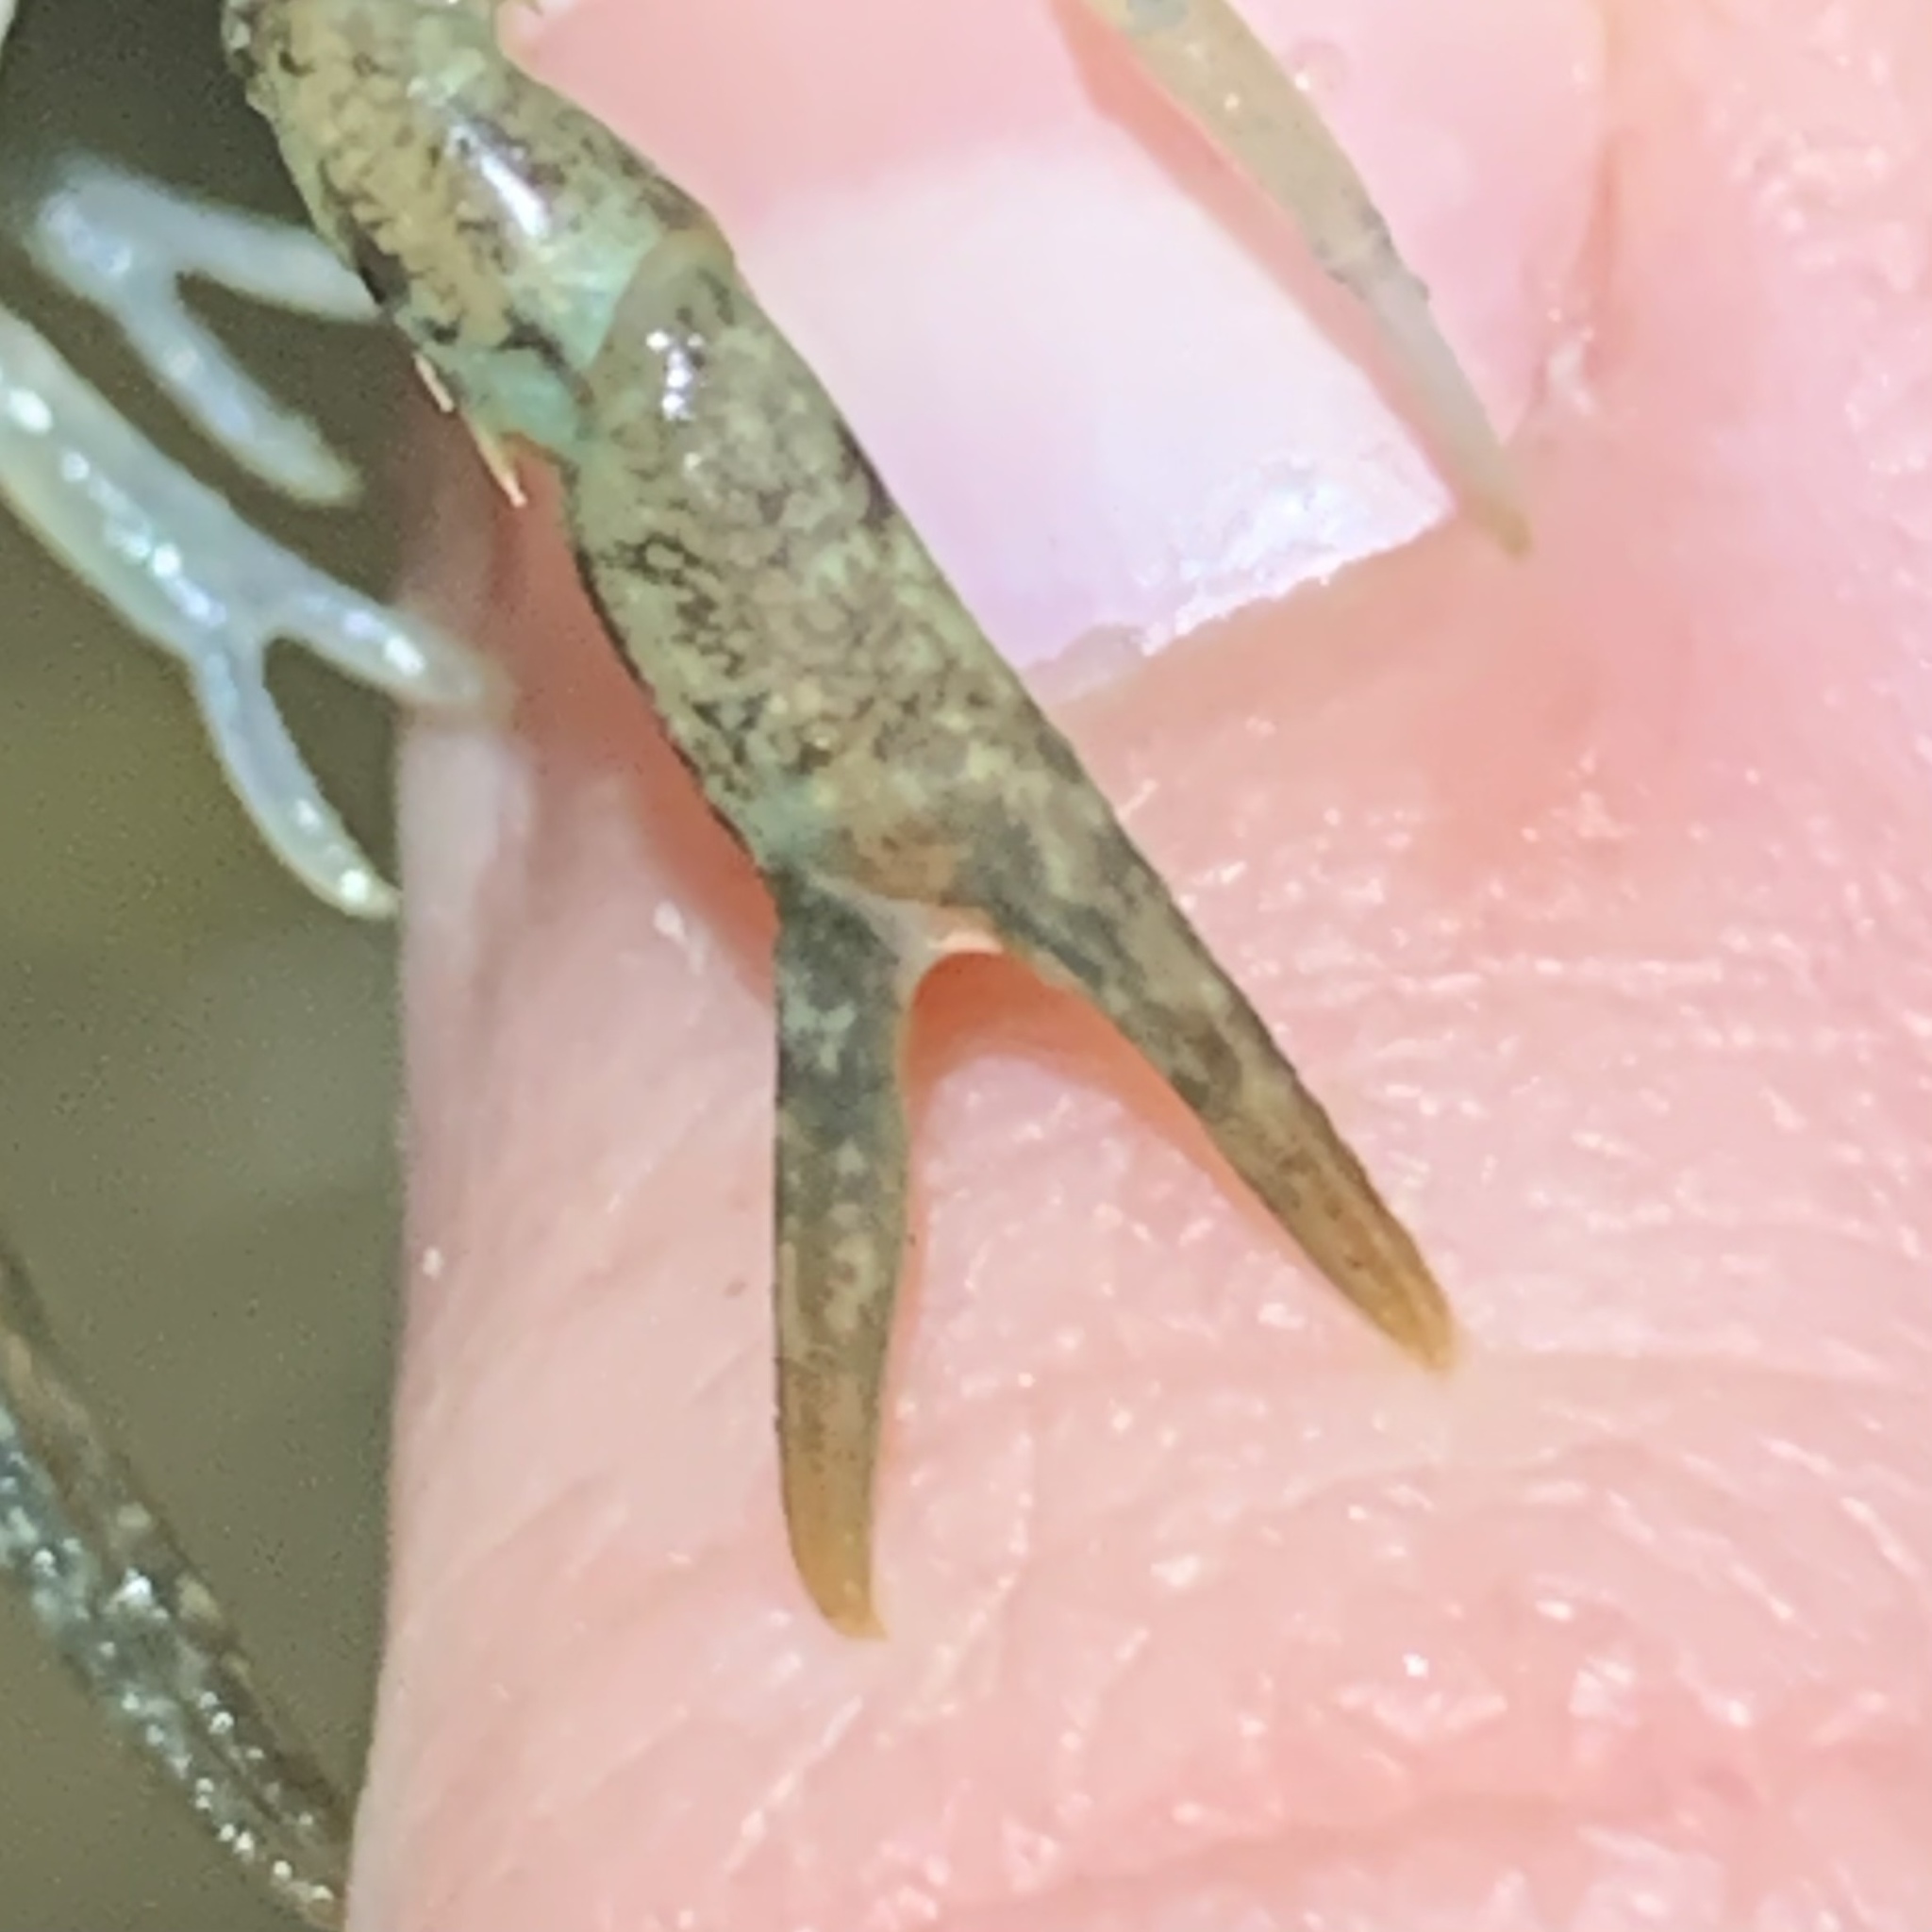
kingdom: Animalia
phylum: Arthropoda
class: Malacostraca
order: Decapoda
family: Cambaridae
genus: Procambarus
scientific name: Procambarus clarkii
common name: Red swamp crayfish
